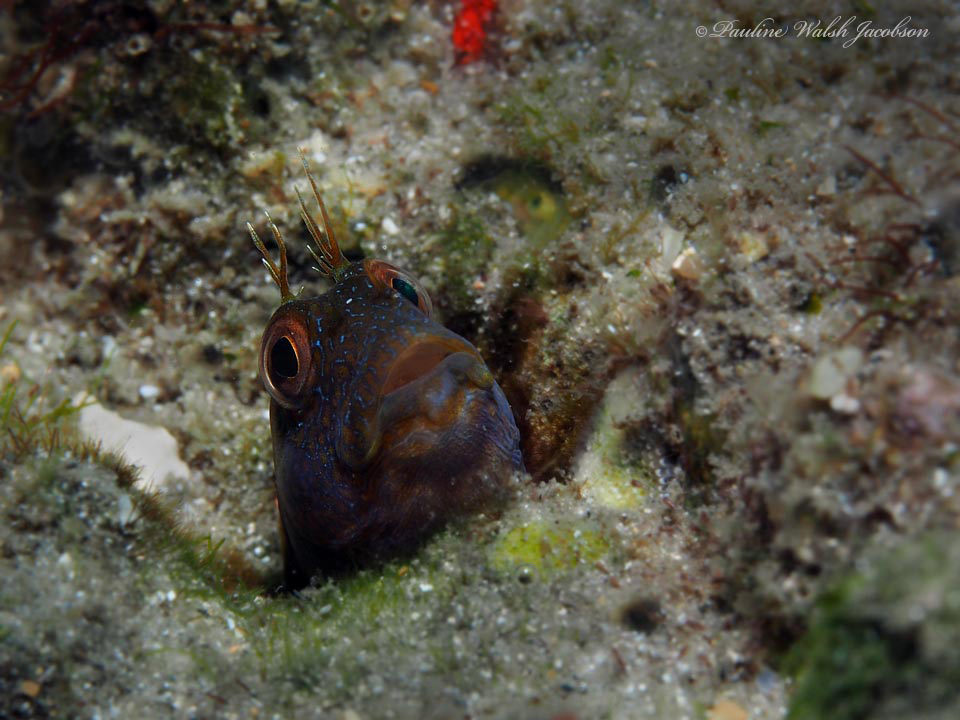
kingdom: Animalia
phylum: Chordata
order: Perciformes
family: Blenniidae
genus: Parablennius
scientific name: Parablennius marmoreus
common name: Seaweed blenny
